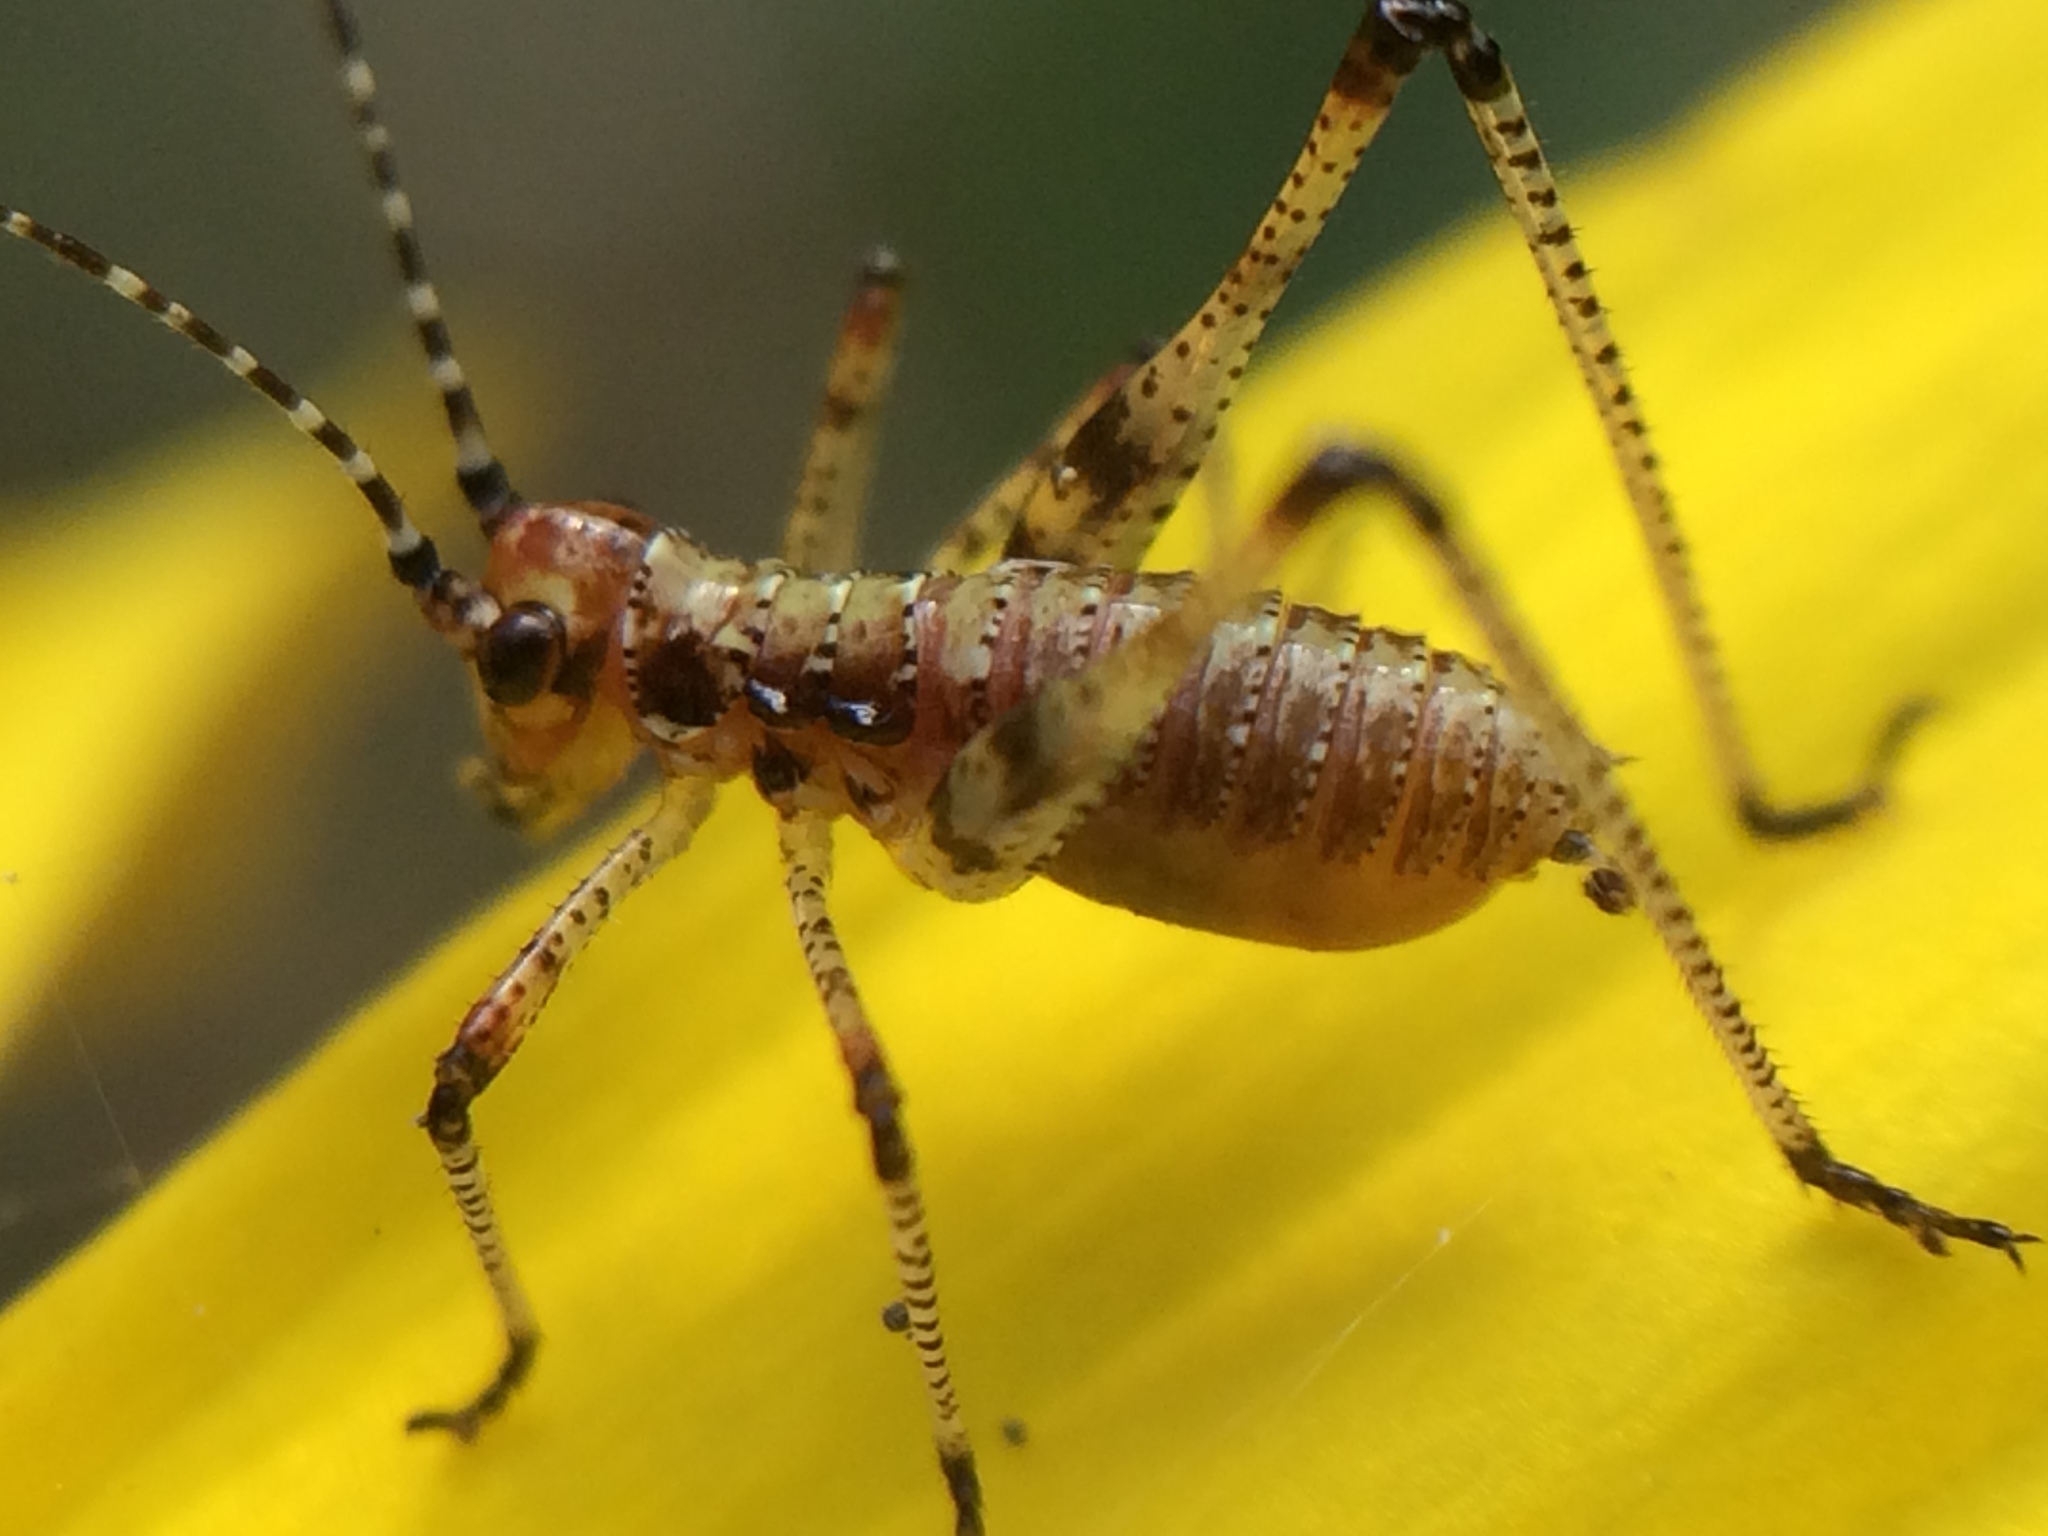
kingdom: Animalia
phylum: Arthropoda
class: Insecta
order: Orthoptera
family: Tettigoniidae
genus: Phaneroptera
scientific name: Phaneroptera nana
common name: Southern sickle bush-cricket
